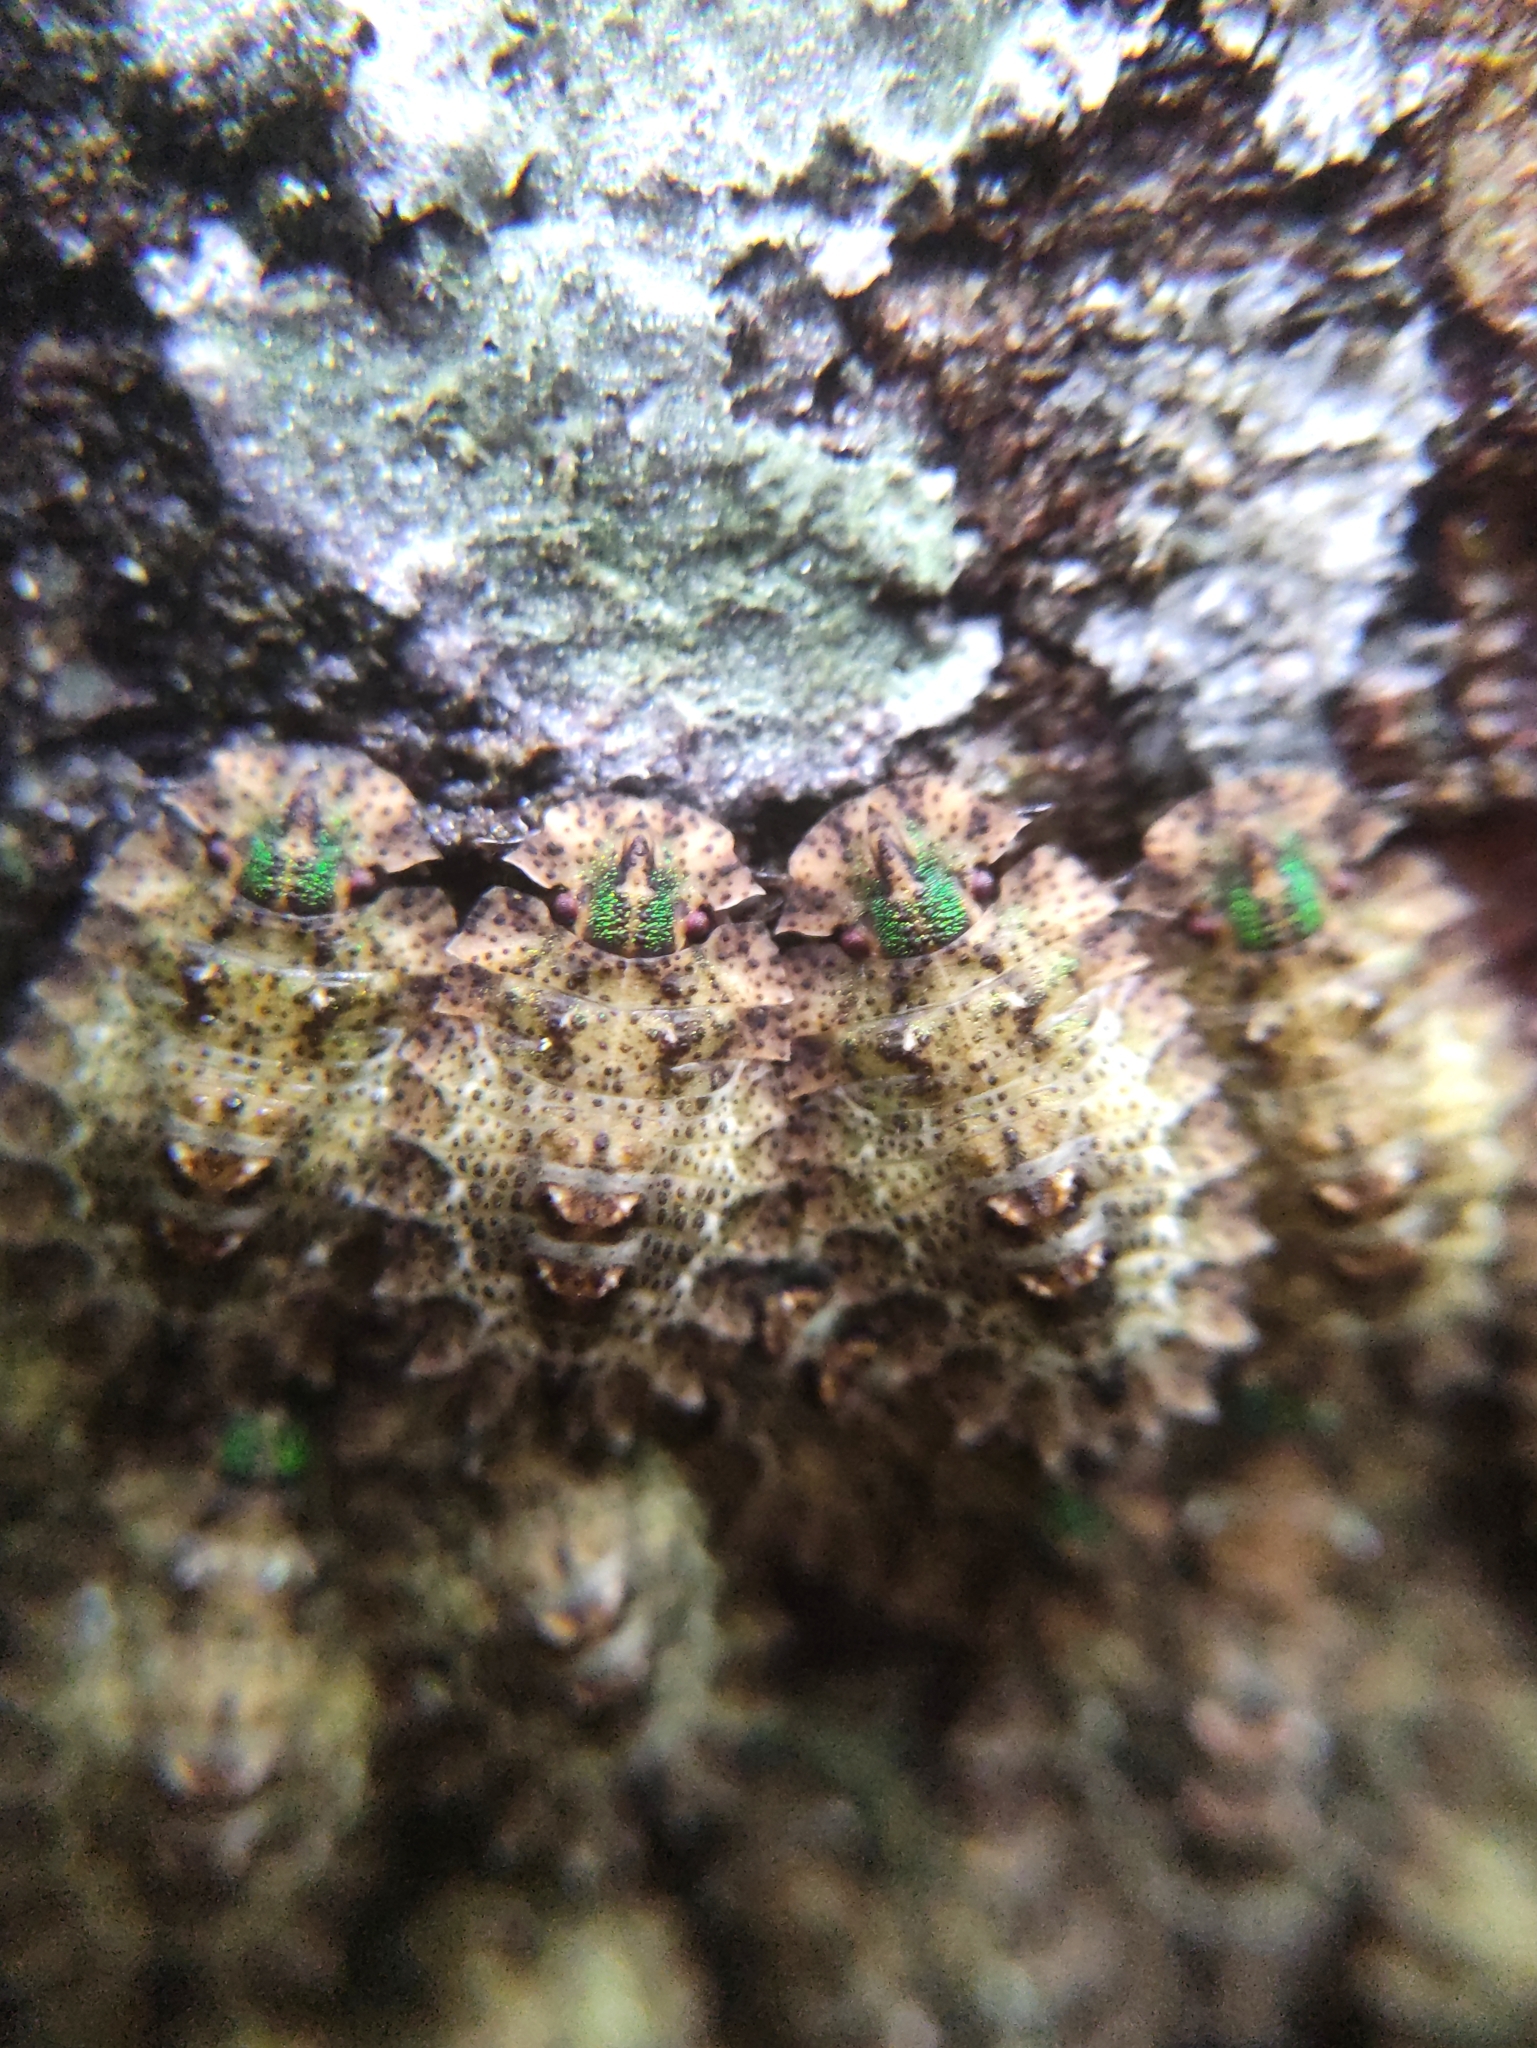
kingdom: Animalia
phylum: Arthropoda
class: Insecta
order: Hemiptera
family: Phloeidae
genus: Phloeophana
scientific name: Phloeophana longirostris
